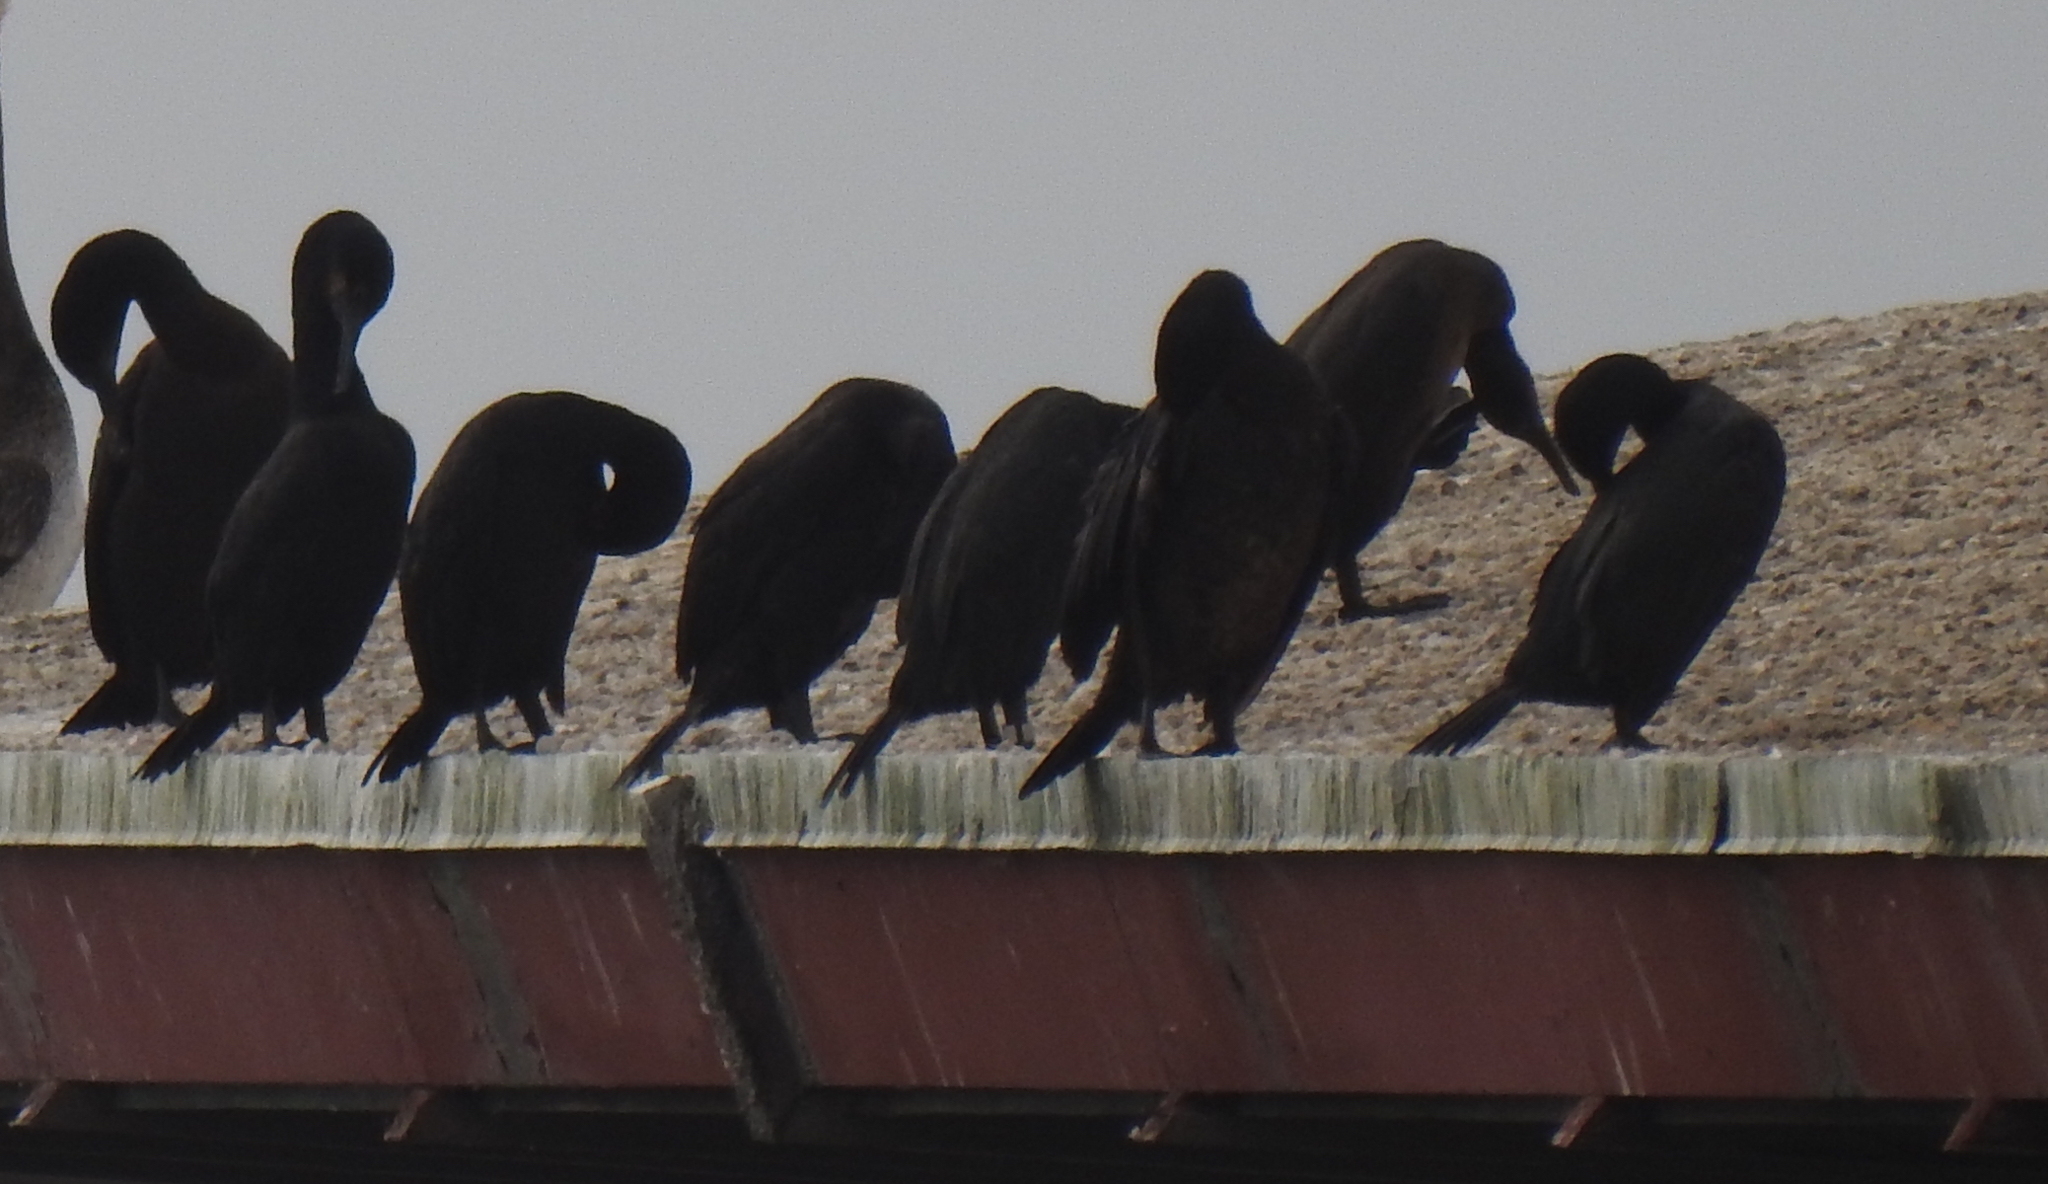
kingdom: Animalia
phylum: Chordata
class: Aves
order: Suliformes
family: Phalacrocoracidae
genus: Urile
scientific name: Urile penicillatus
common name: Brandt's cormorant
